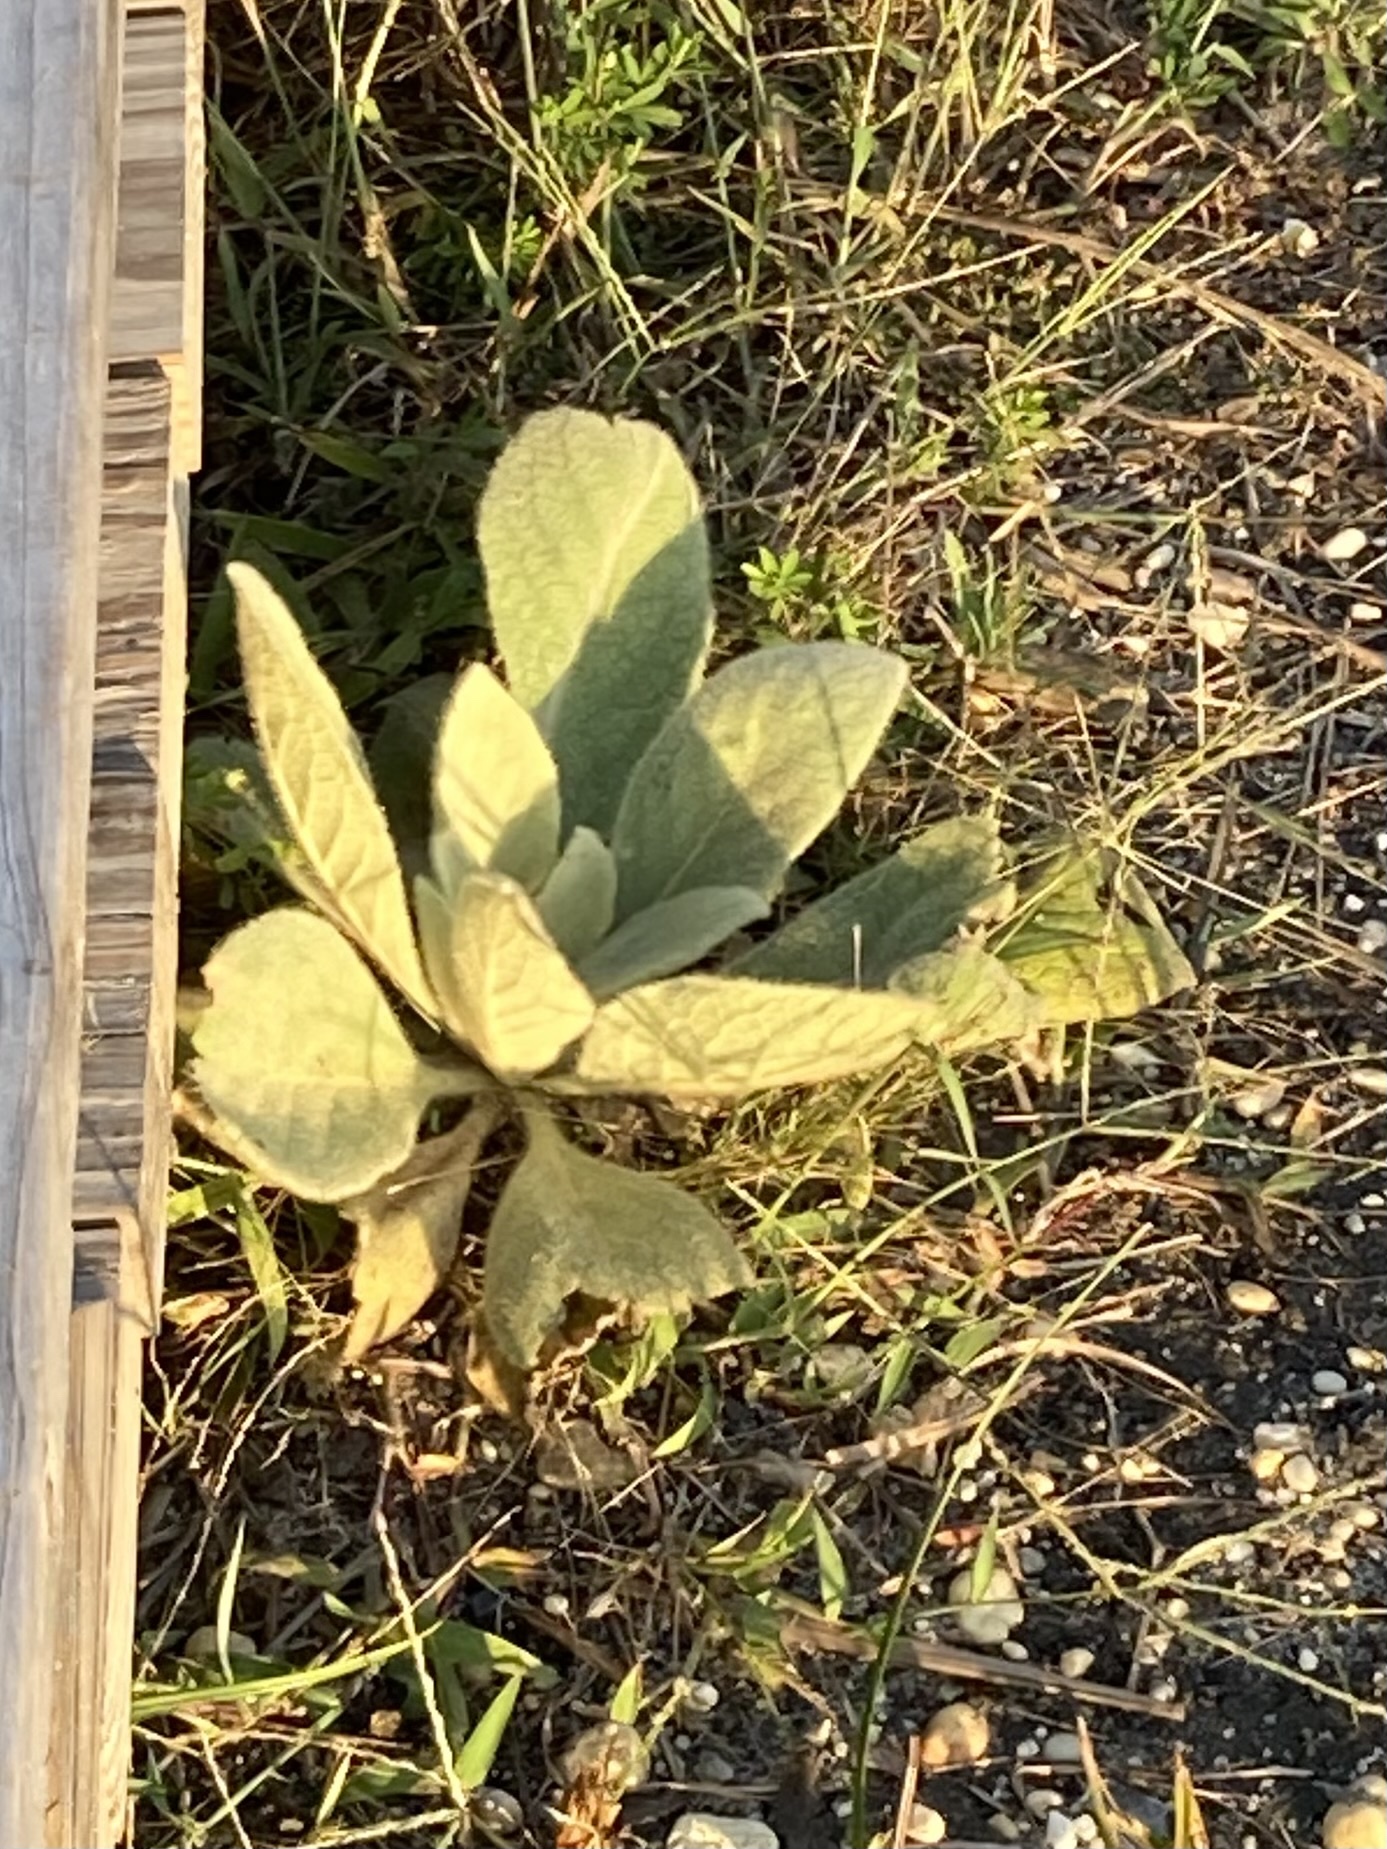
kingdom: Plantae
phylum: Tracheophyta
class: Magnoliopsida
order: Lamiales
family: Scrophulariaceae
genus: Verbascum
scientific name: Verbascum thapsus
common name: Common mullein
